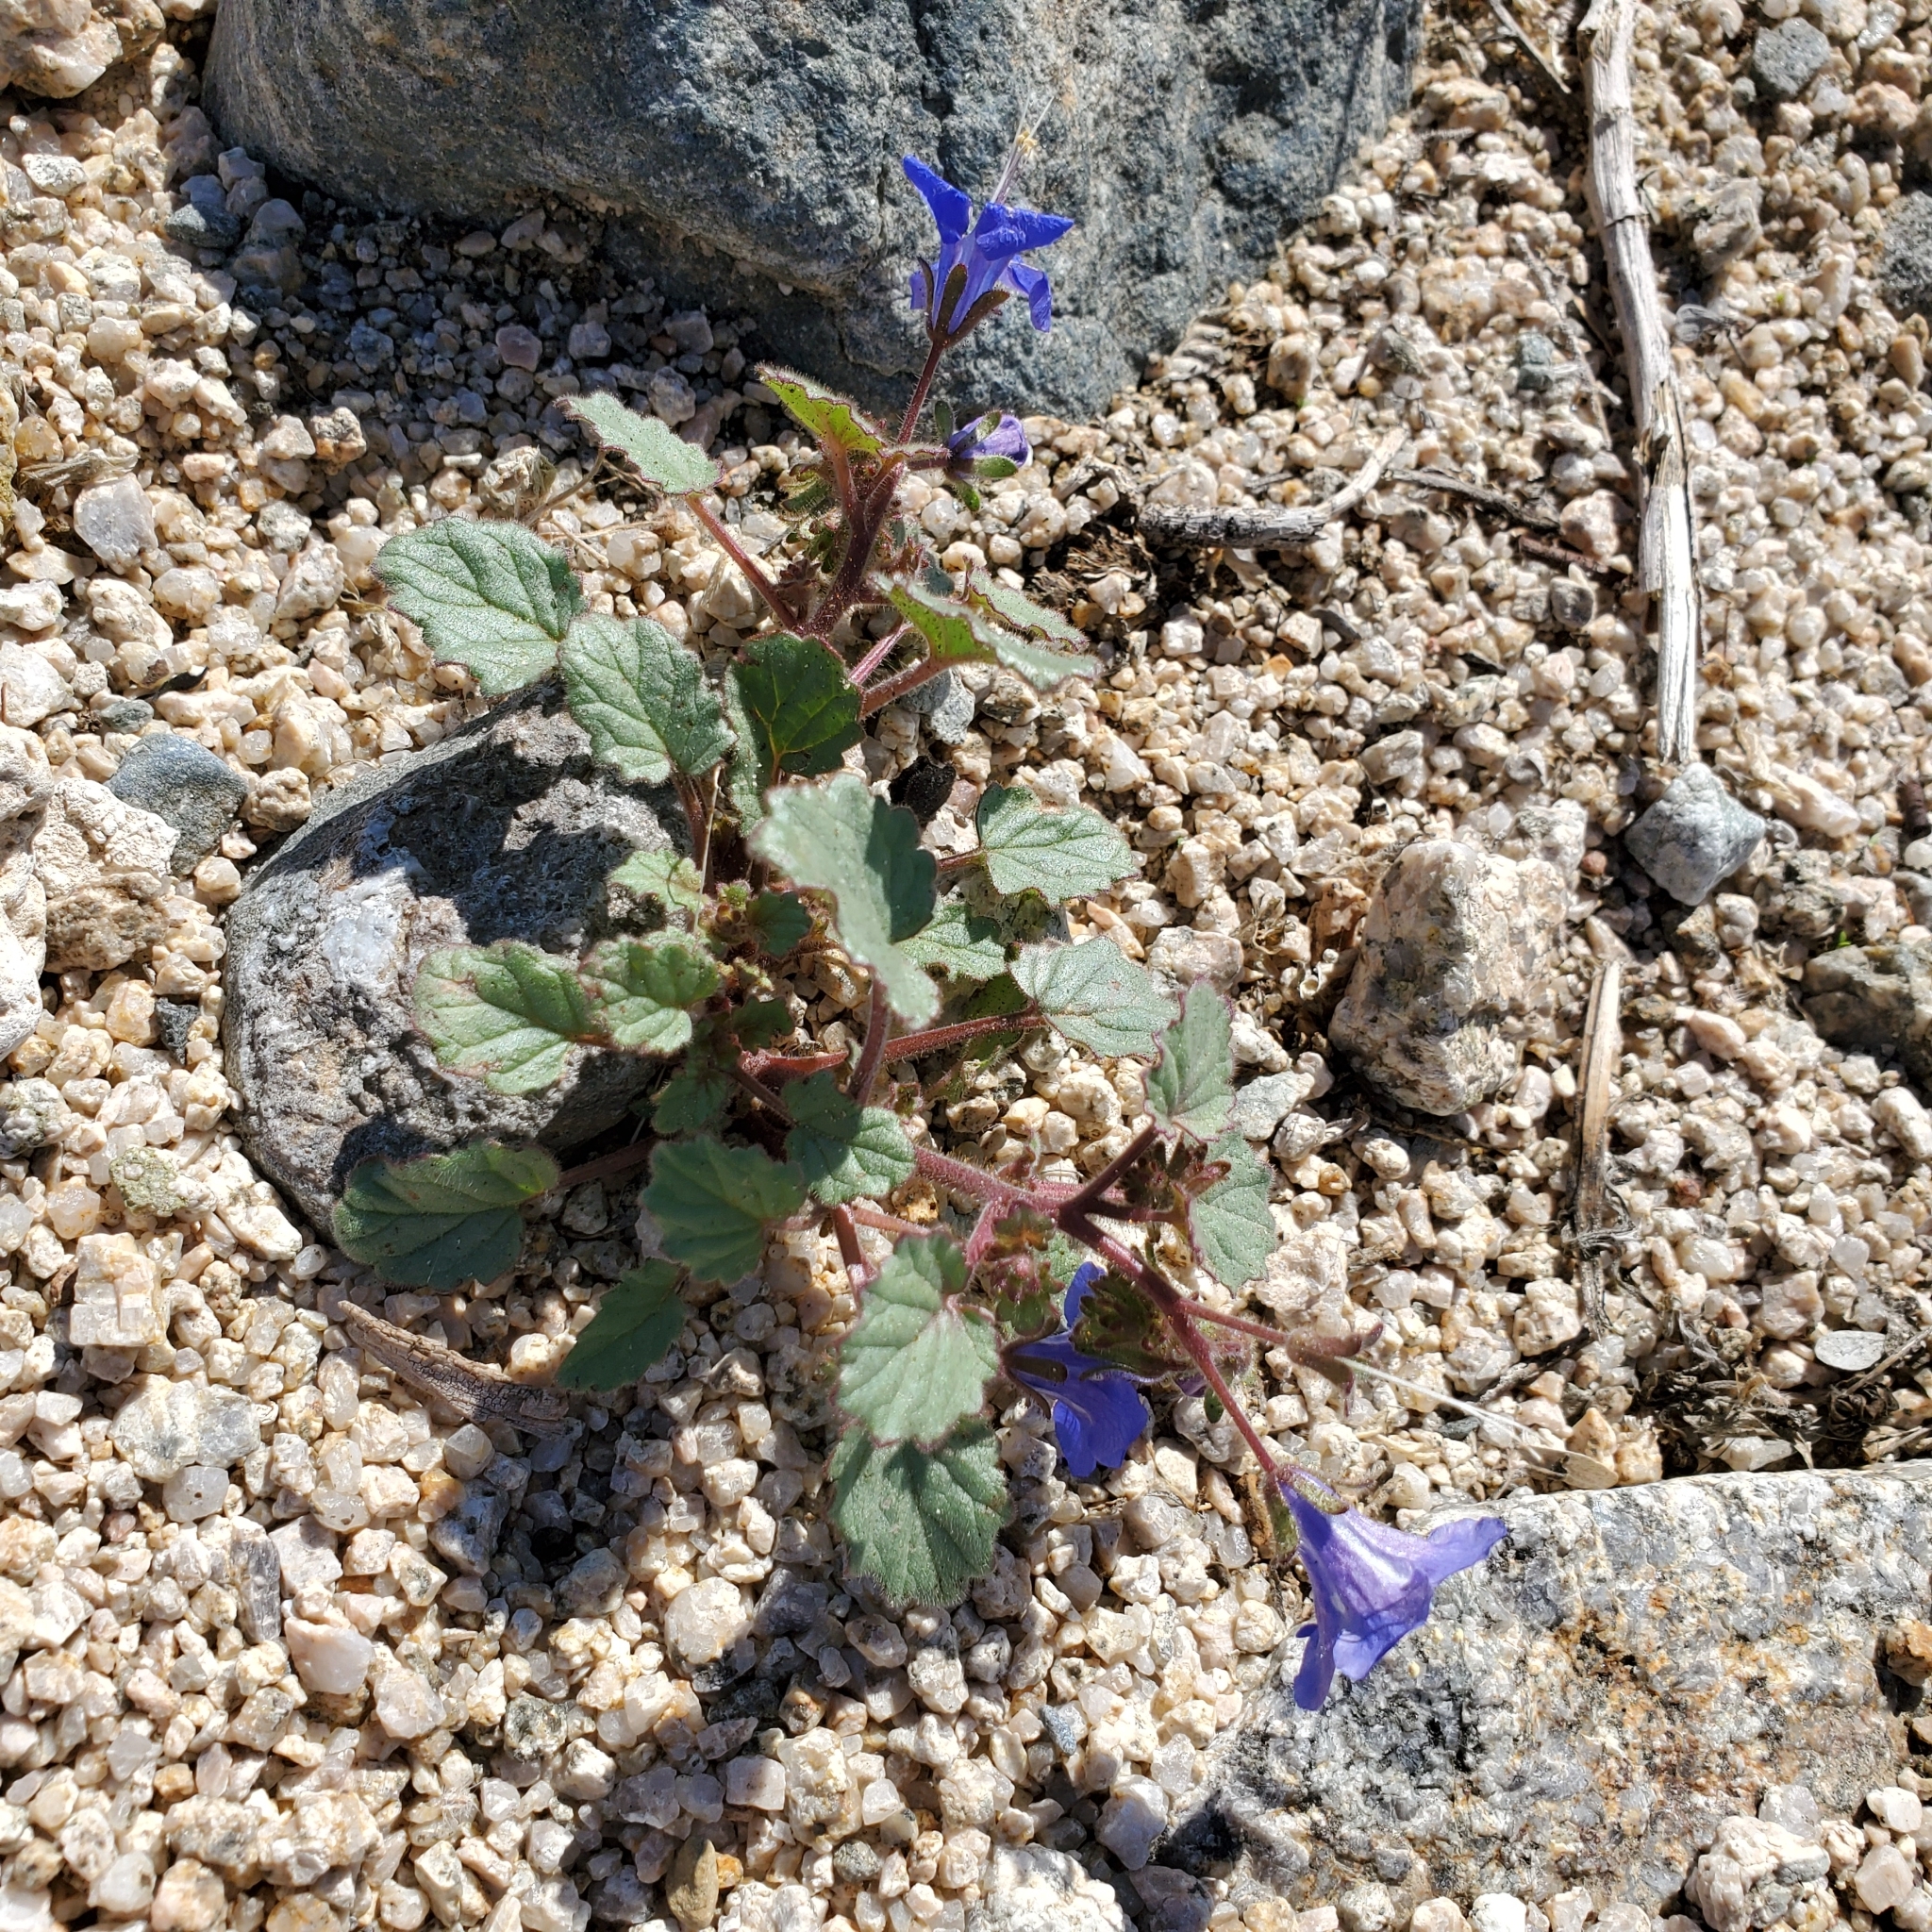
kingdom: Plantae
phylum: Tracheophyta
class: Magnoliopsida
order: Boraginales
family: Hydrophyllaceae
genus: Phacelia
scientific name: Phacelia campanularia
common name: California bluebell
